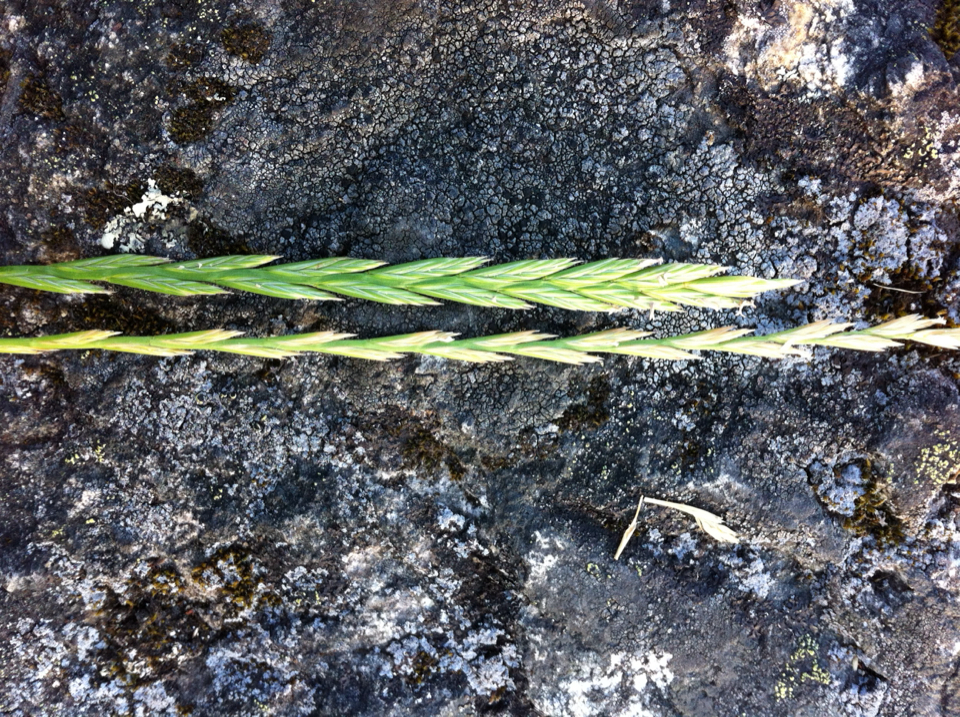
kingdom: Plantae
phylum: Tracheophyta
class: Liliopsida
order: Poales
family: Poaceae
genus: Lolium
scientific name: Lolium perenne
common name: Perennial ryegrass
